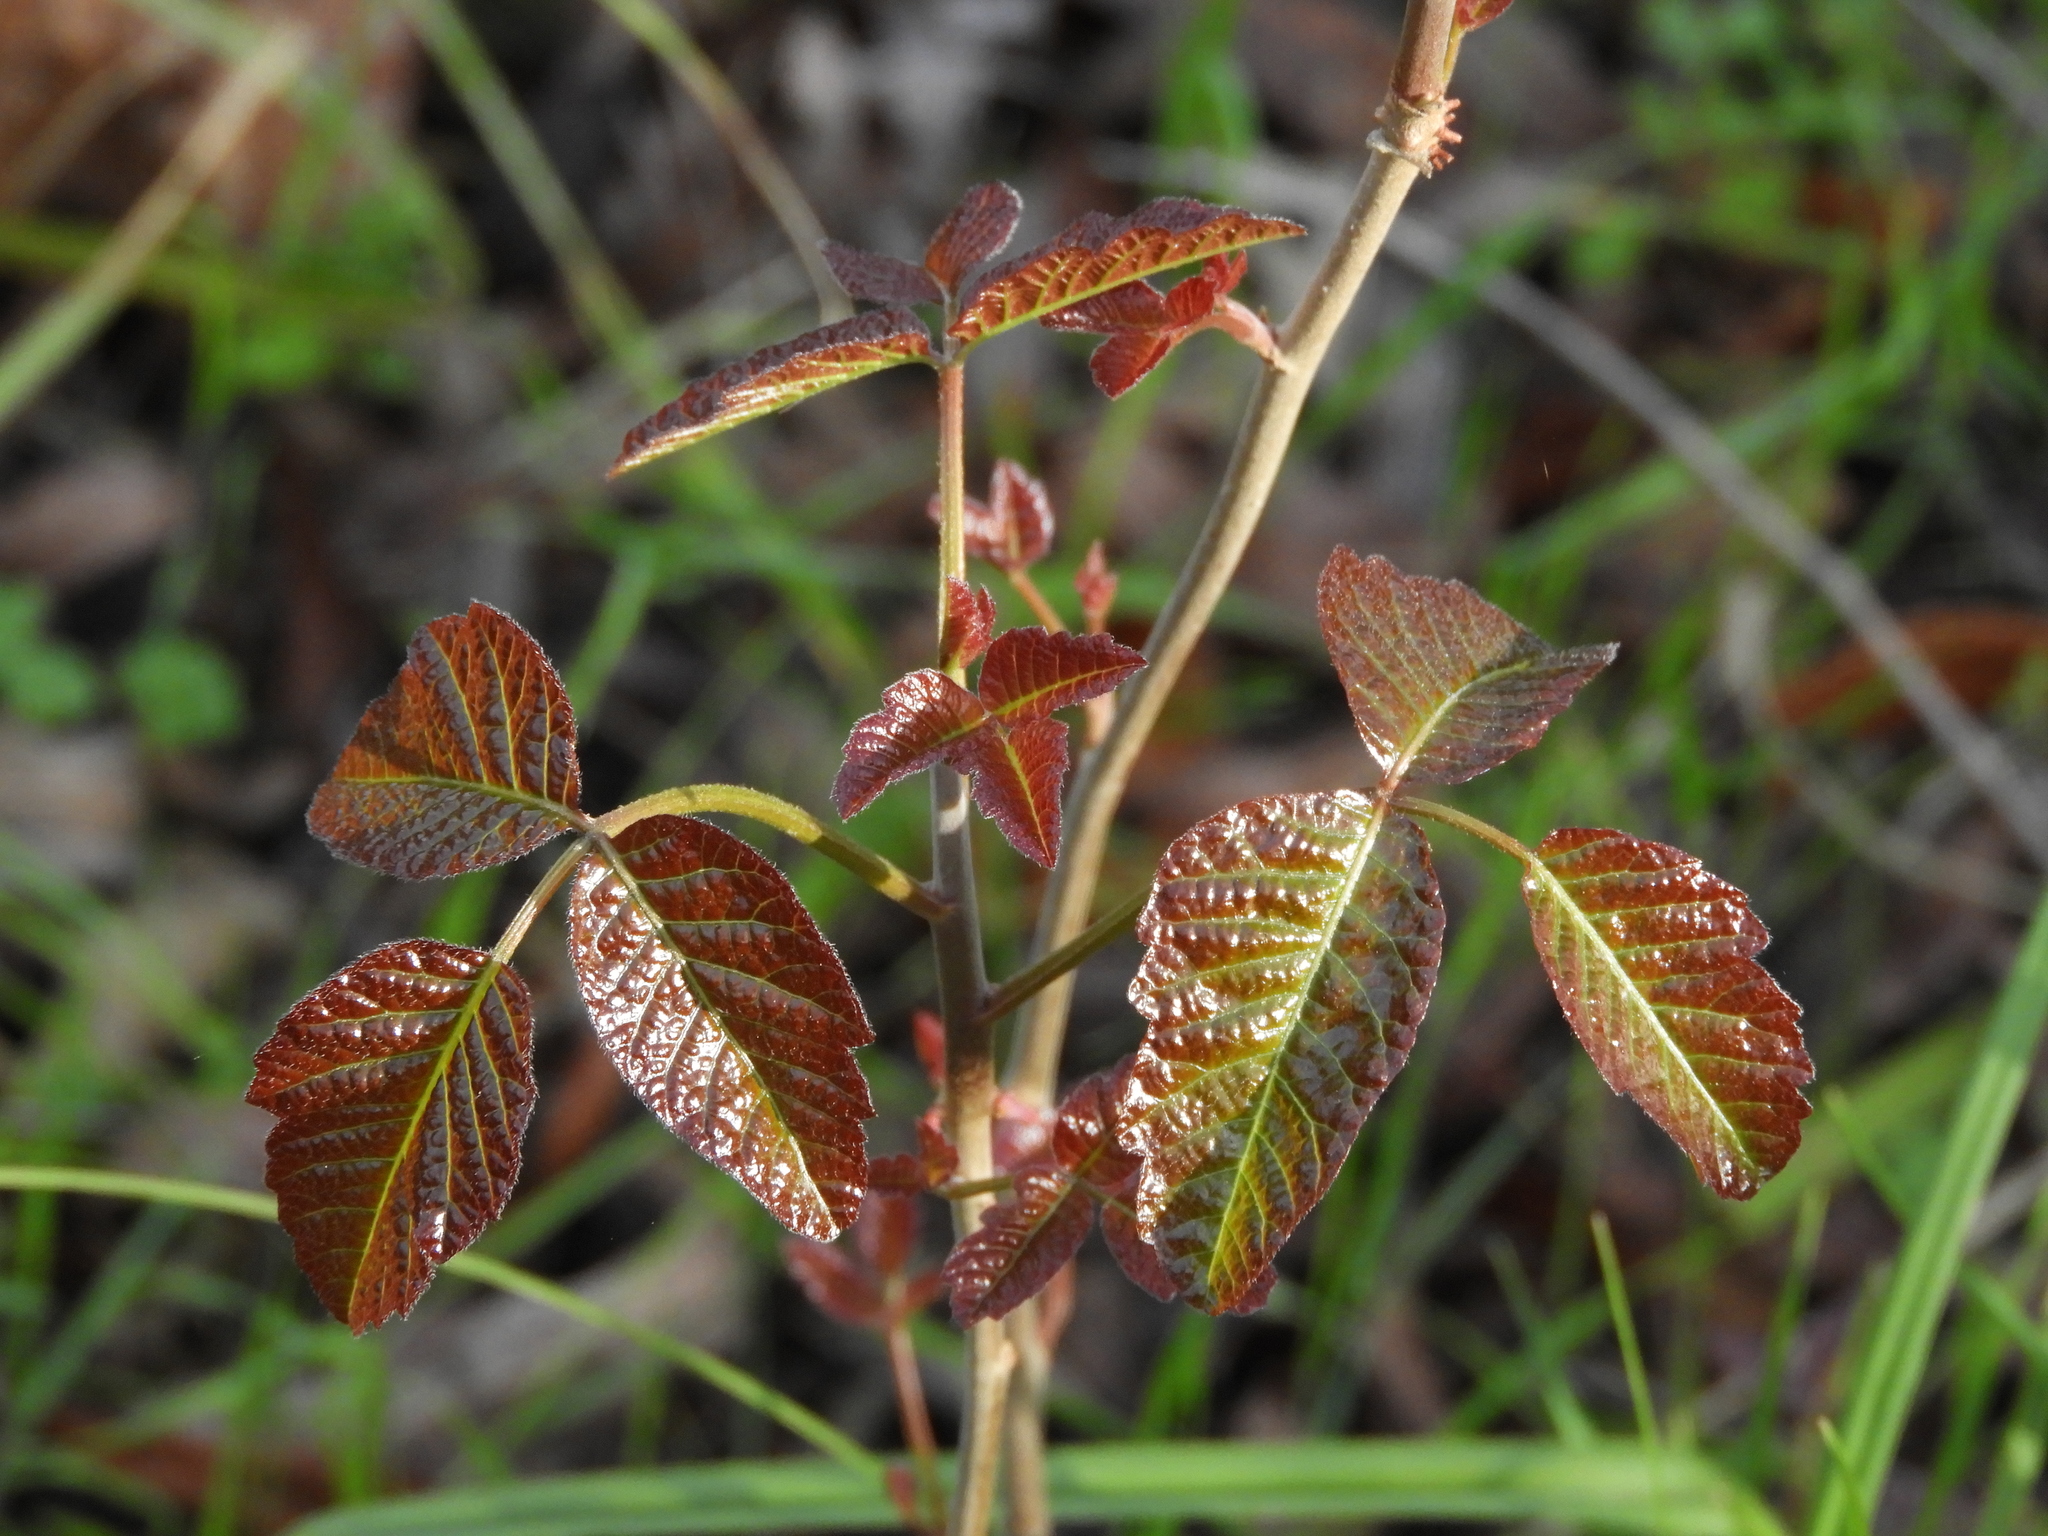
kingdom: Plantae
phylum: Tracheophyta
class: Magnoliopsida
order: Sapindales
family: Anacardiaceae
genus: Toxicodendron
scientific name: Toxicodendron diversilobum
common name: Pacific poison-oak
